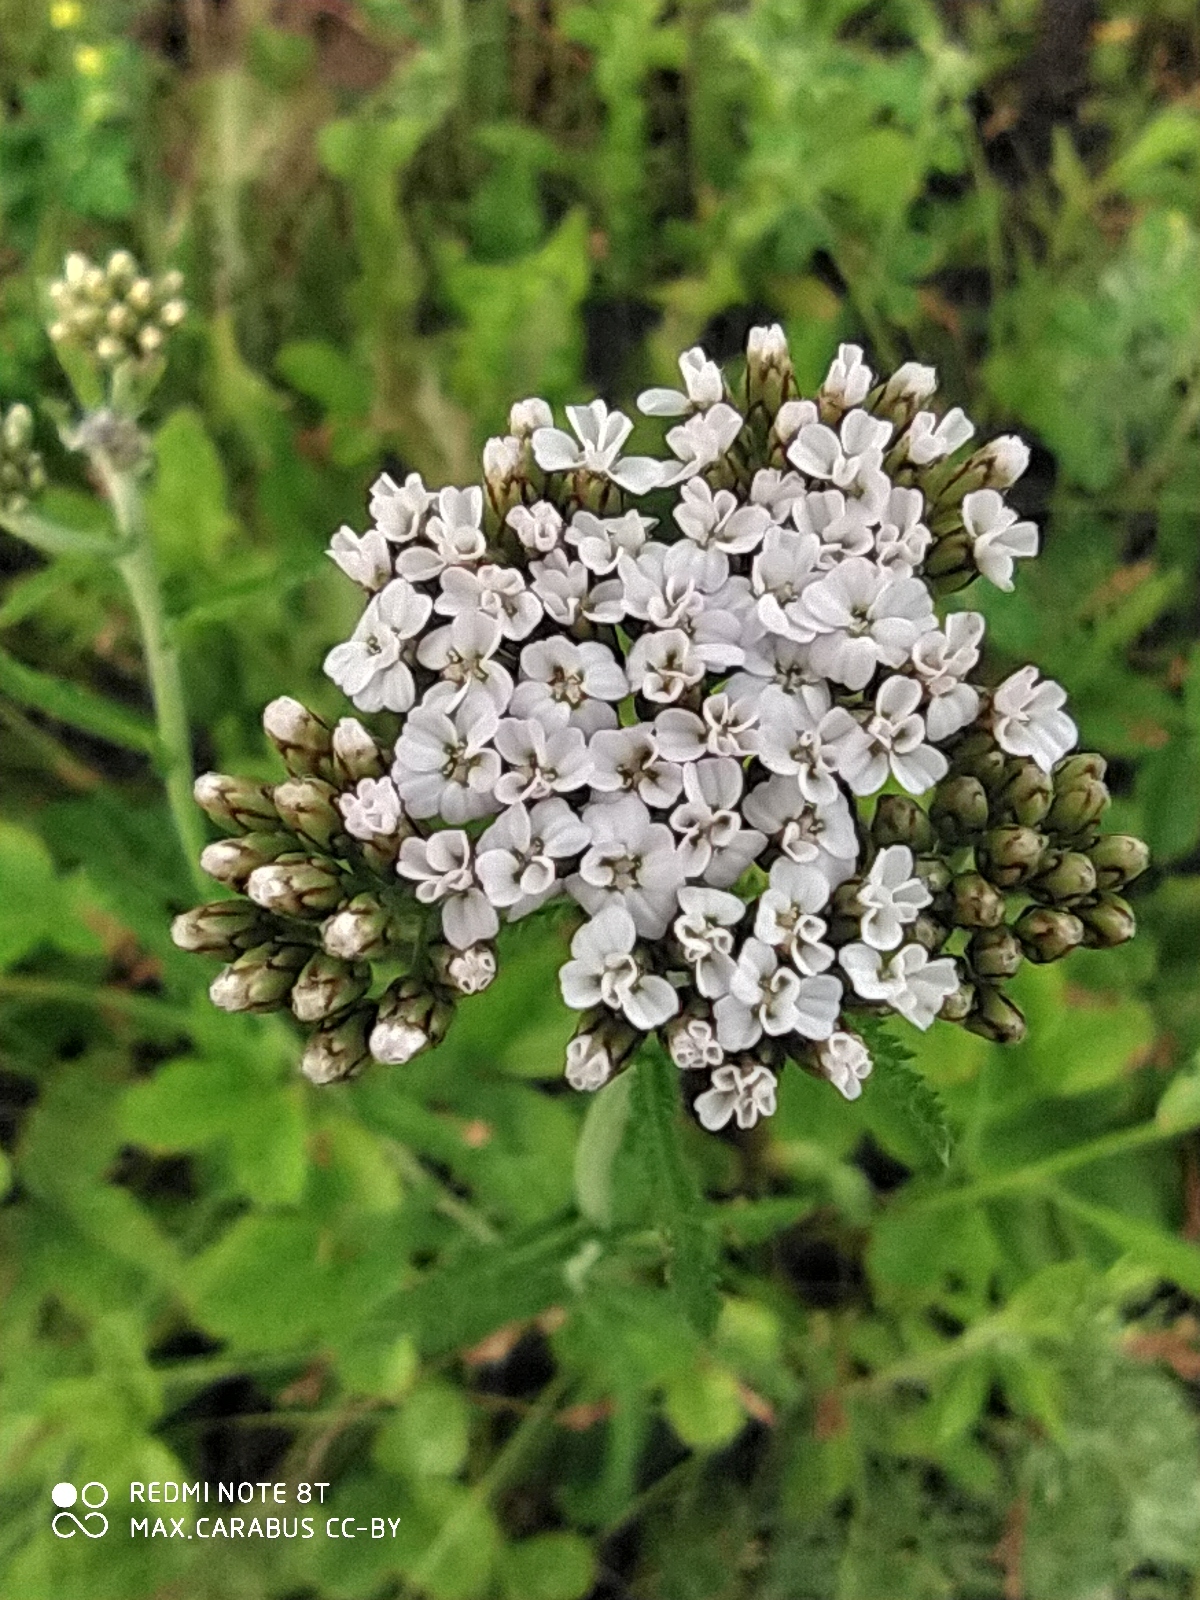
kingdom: Plantae
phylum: Tracheophyta
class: Magnoliopsida
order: Asterales
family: Asteraceae
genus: Achillea
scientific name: Achillea millefolium
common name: Yarrow
